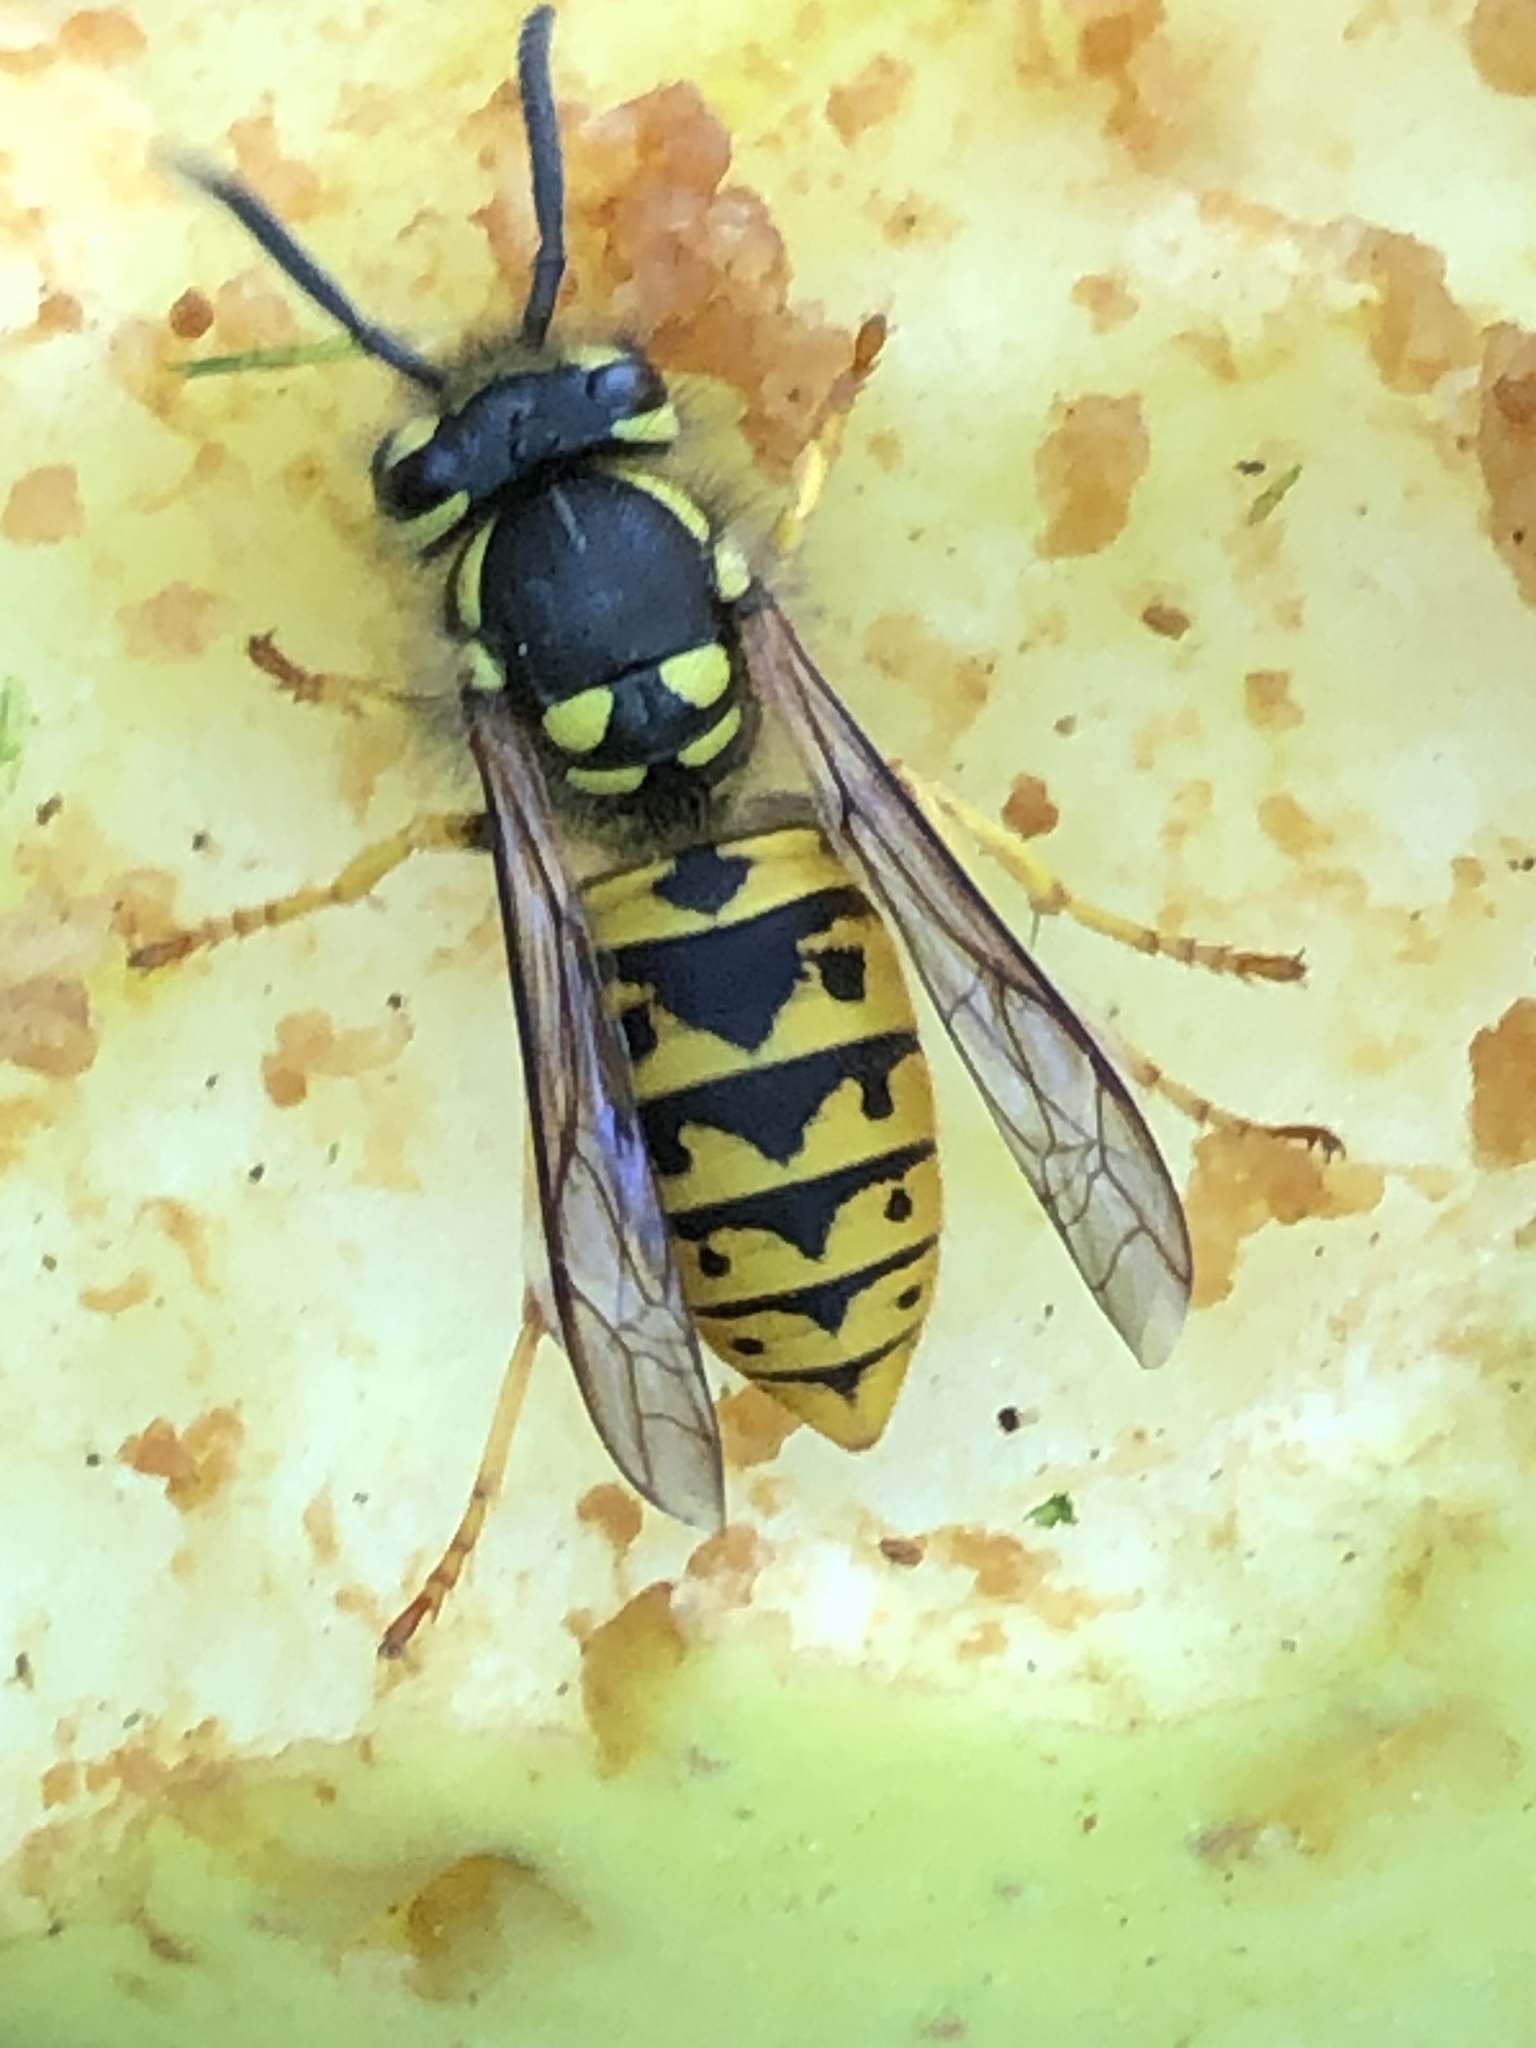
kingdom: Animalia
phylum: Arthropoda
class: Insecta
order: Hymenoptera
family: Vespidae
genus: Vespula
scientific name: Vespula germanica
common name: German wasp
